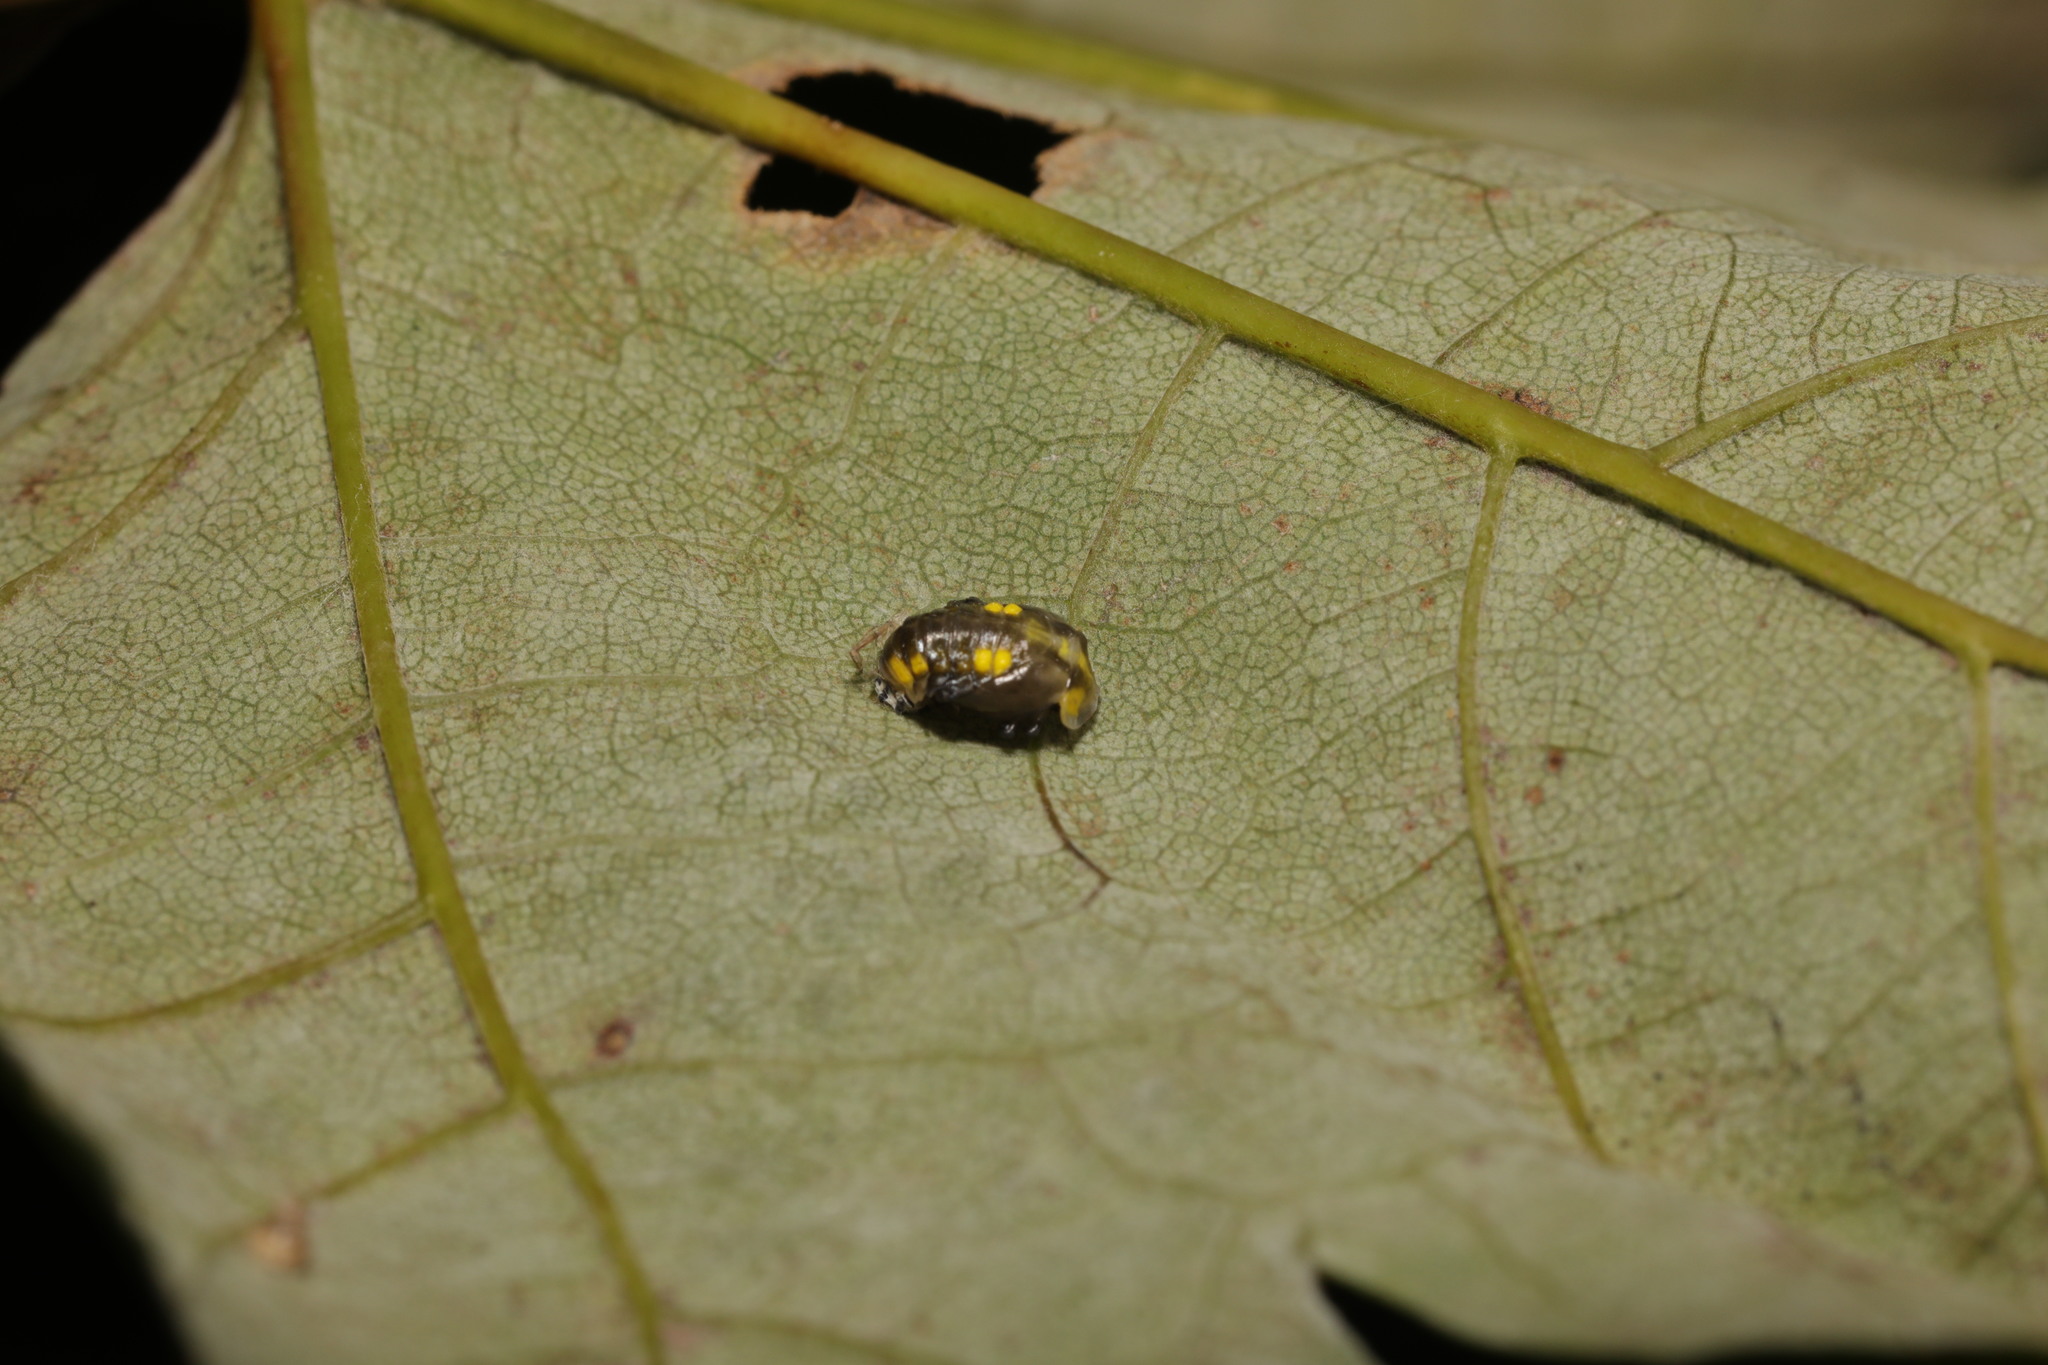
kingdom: Animalia
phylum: Arthropoda
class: Insecta
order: Coleoptera
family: Coccinellidae
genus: Halyzia
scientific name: Halyzia sedecimguttata
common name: Orange ladybird
